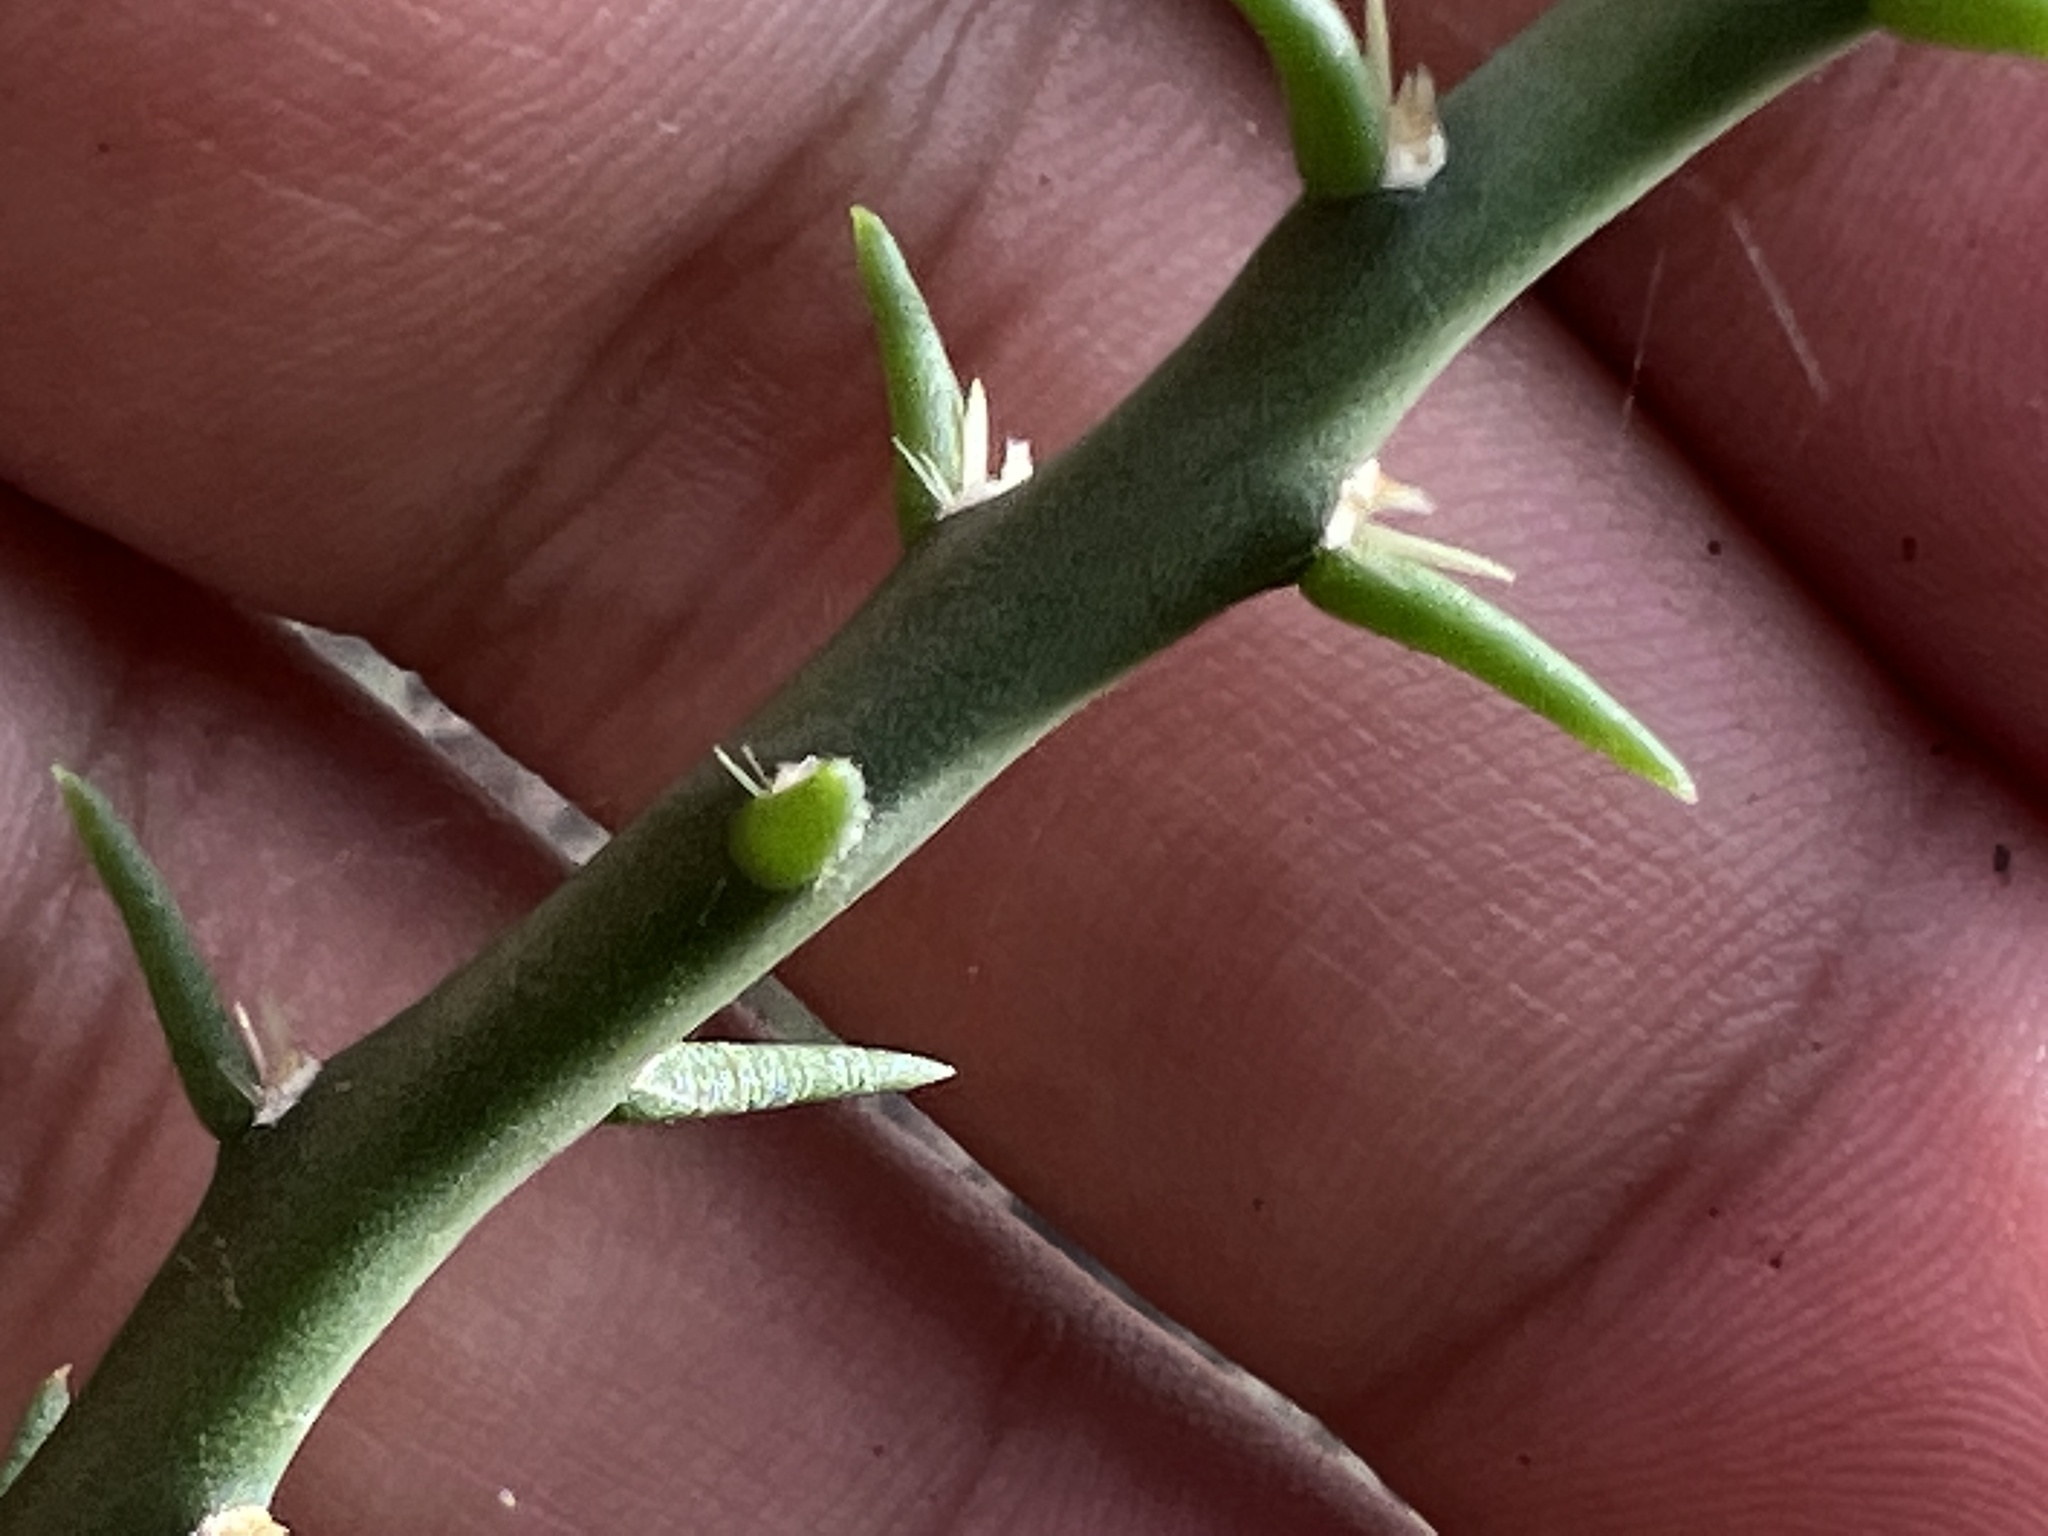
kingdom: Plantae
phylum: Tracheophyta
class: Magnoliopsida
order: Caryophyllales
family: Cactaceae
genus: Cylindropuntia
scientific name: Cylindropuntia leptocaulis
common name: Christmas cactus
